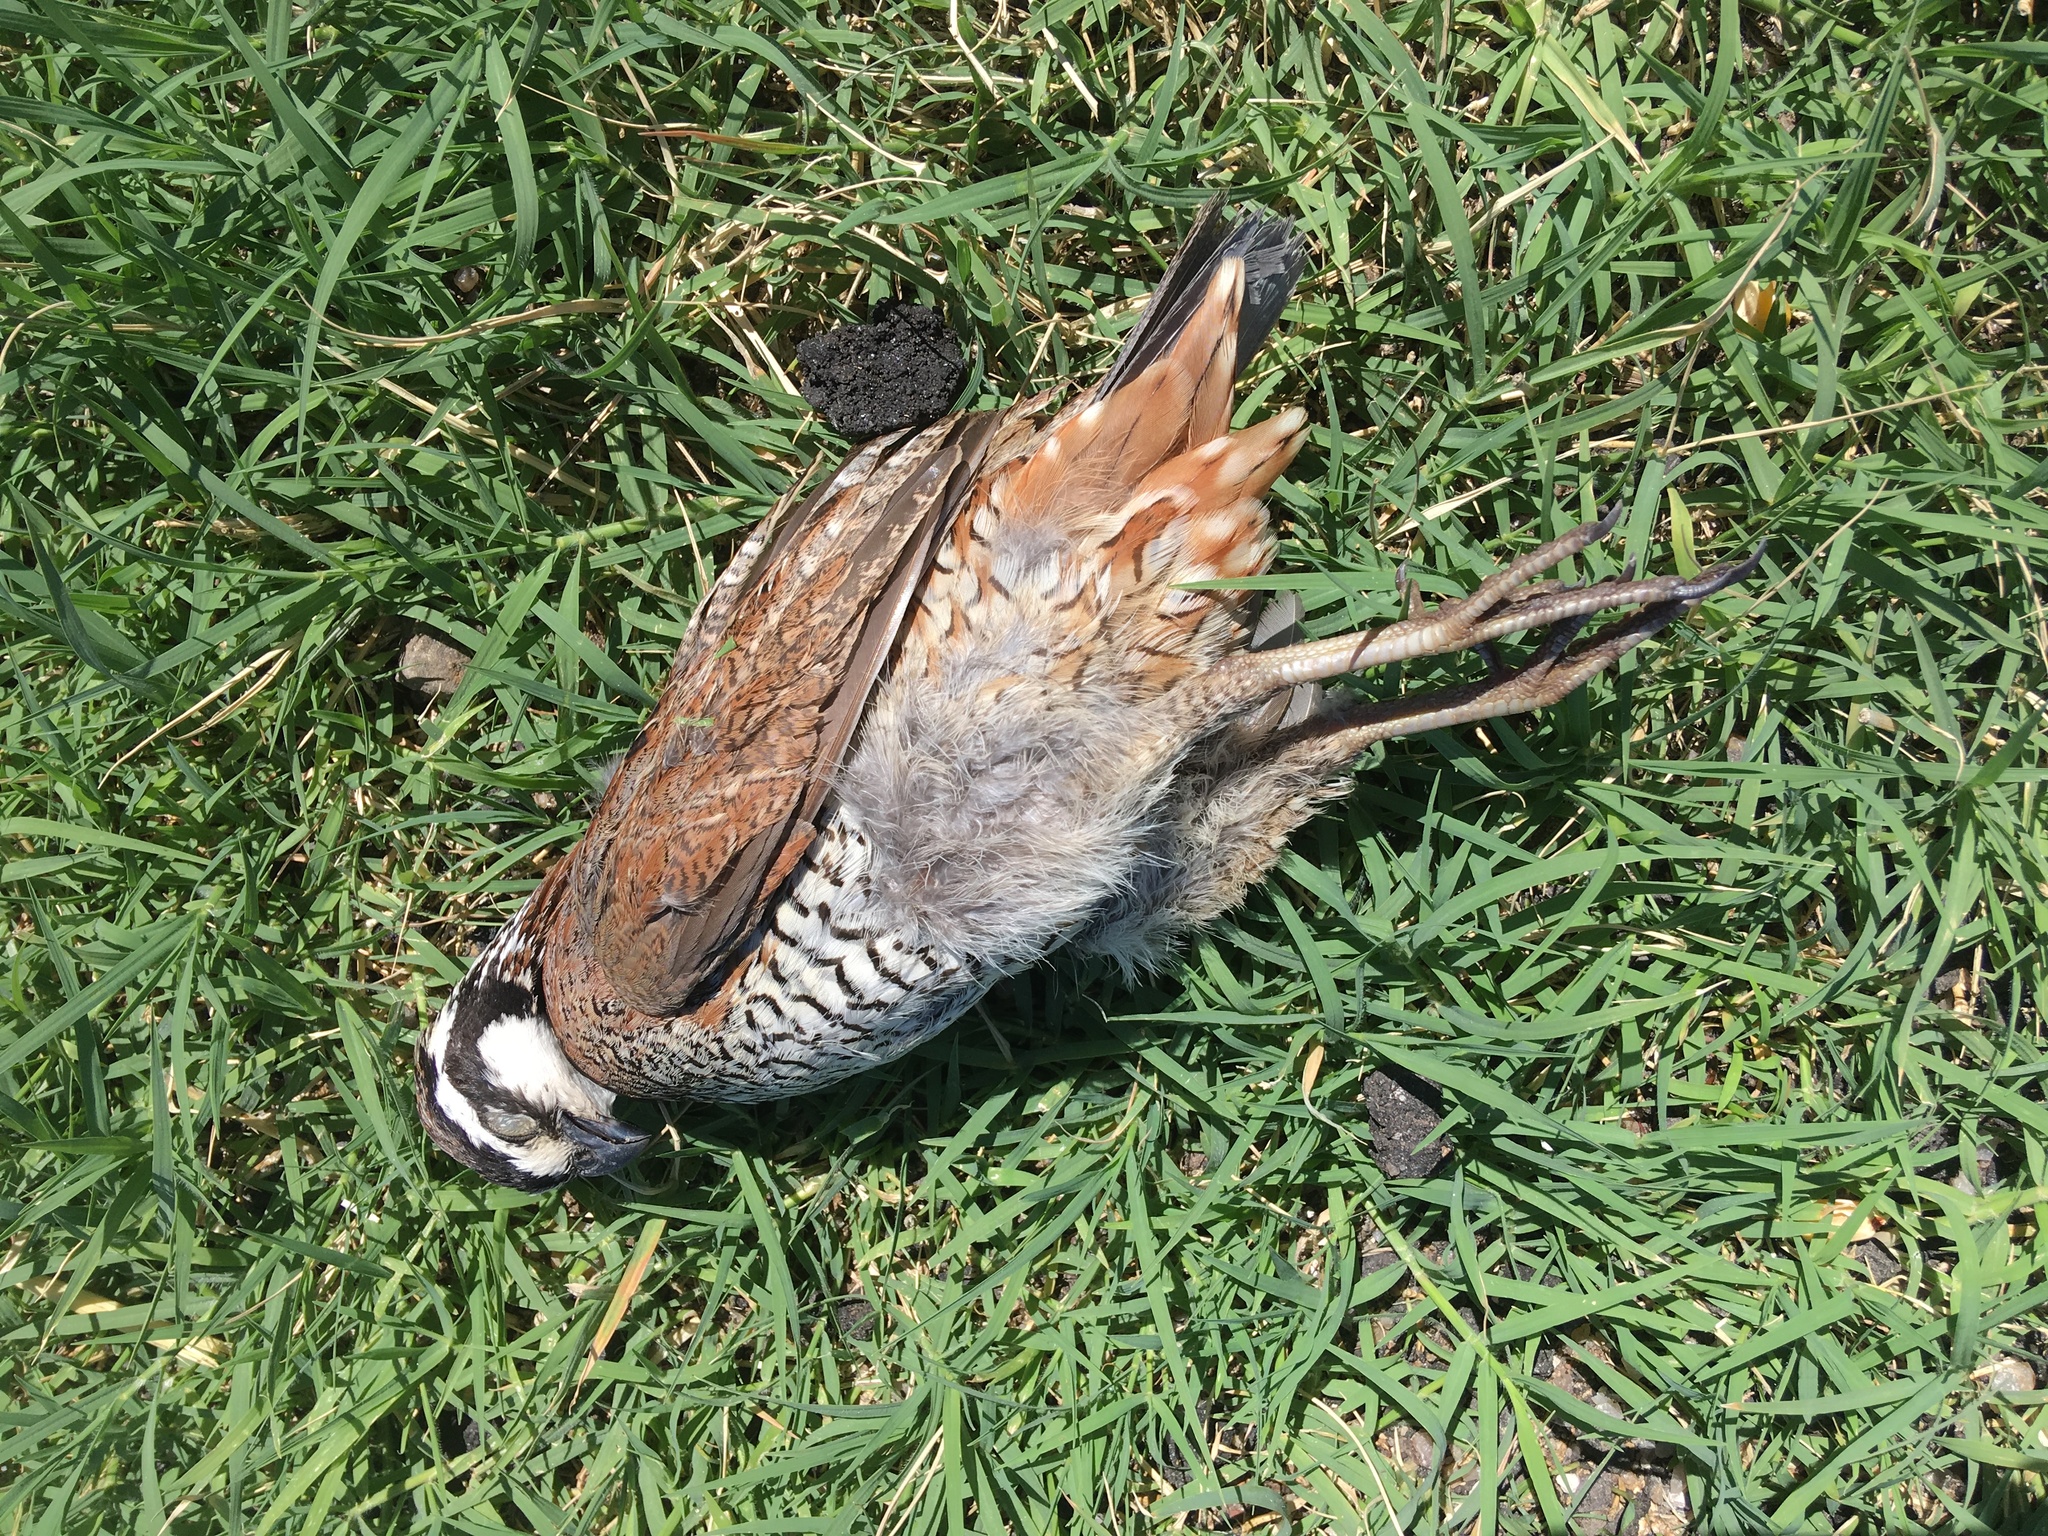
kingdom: Animalia
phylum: Chordata
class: Aves
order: Galliformes
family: Odontophoridae
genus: Colinus
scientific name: Colinus virginianus
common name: Northern bobwhite
